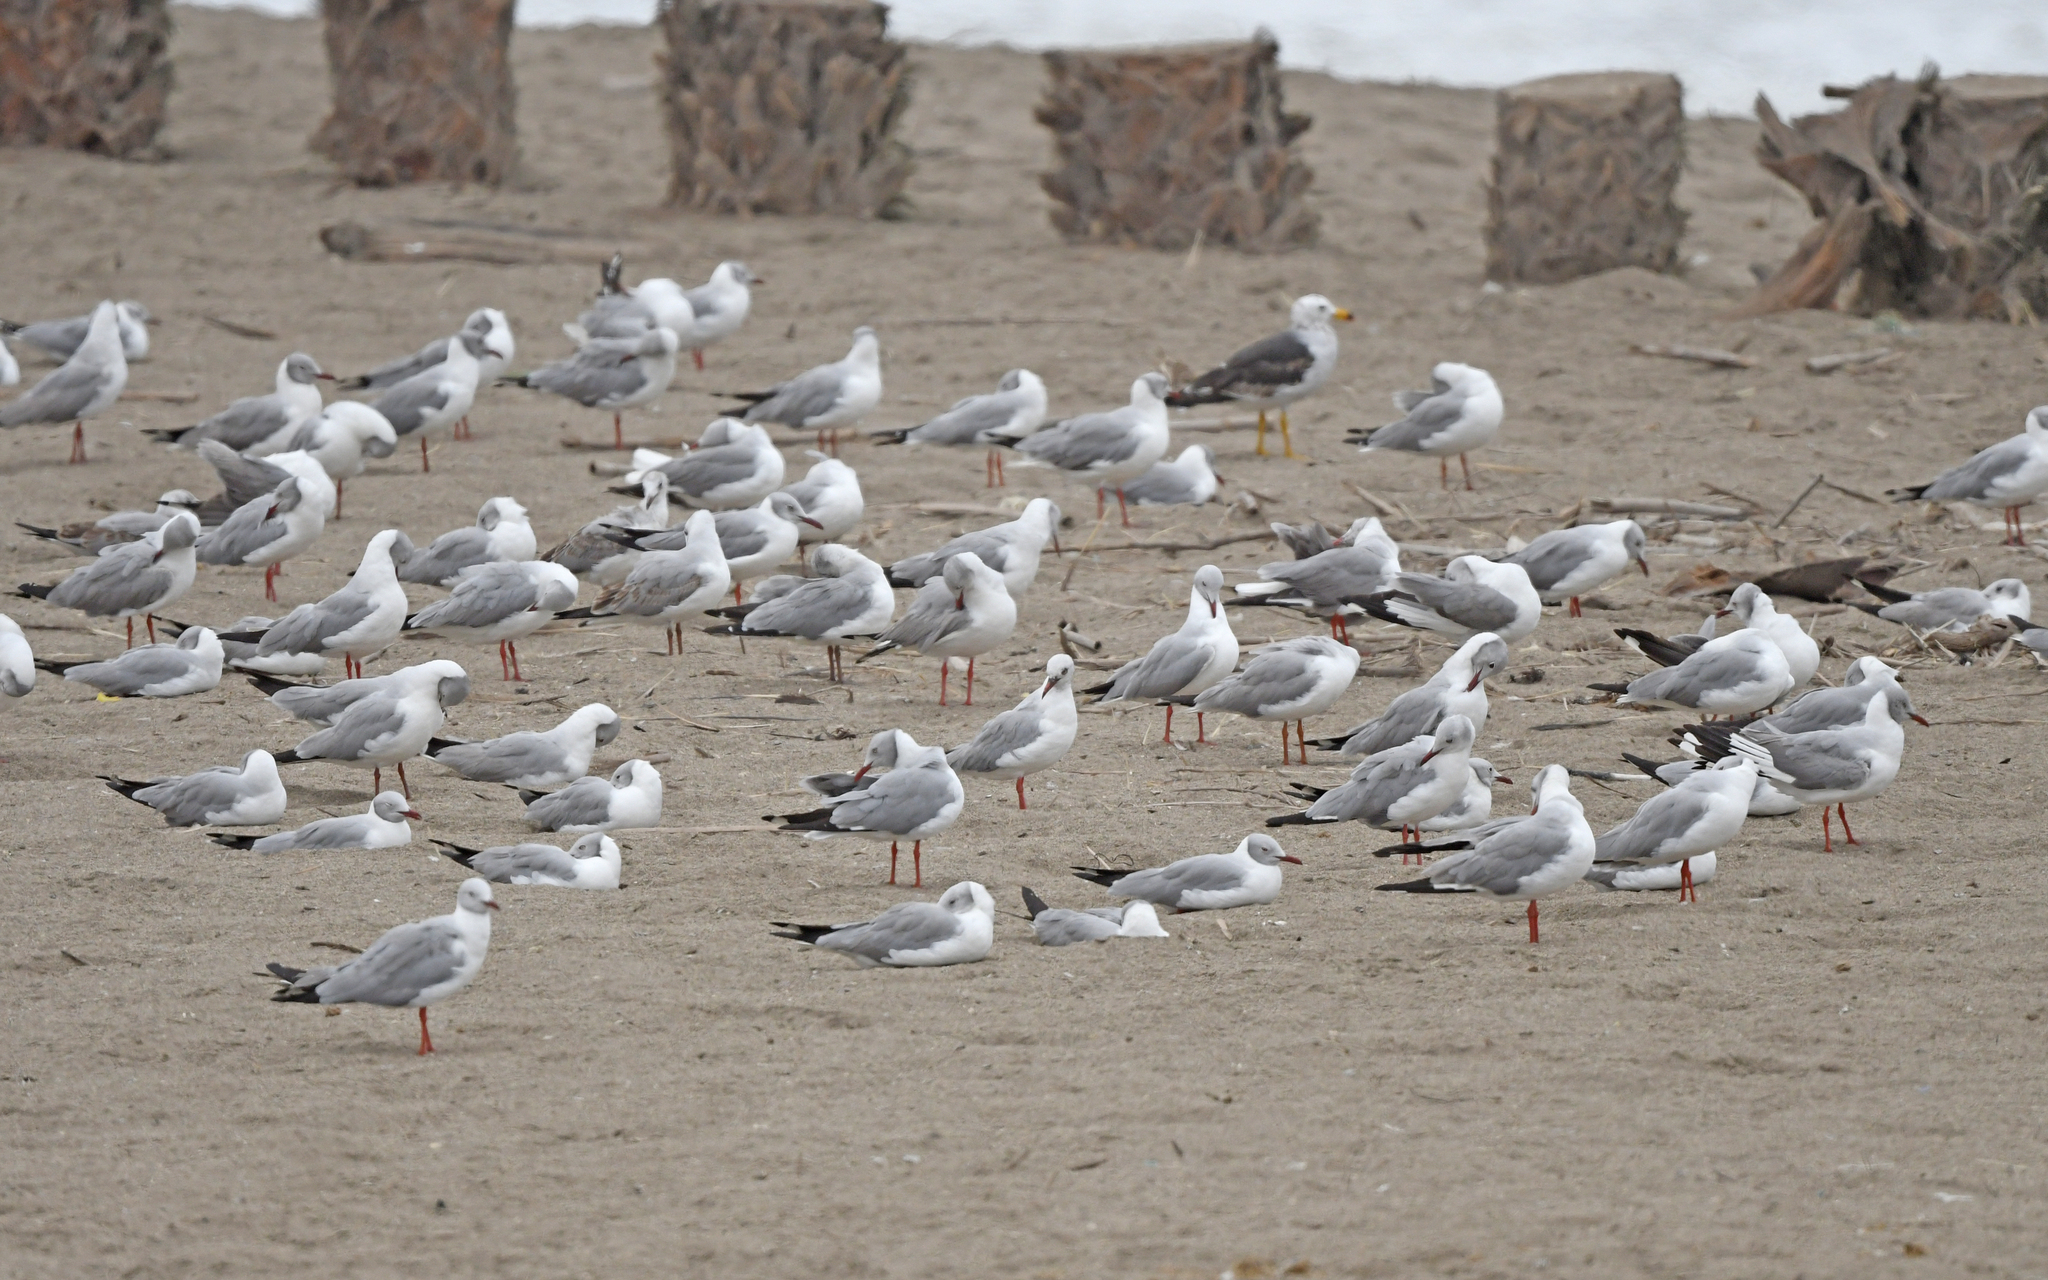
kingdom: Animalia
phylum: Chordata
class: Aves
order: Charadriiformes
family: Laridae
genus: Chroicocephalus
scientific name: Chroicocephalus cirrocephalus
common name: Grey-headed gull
